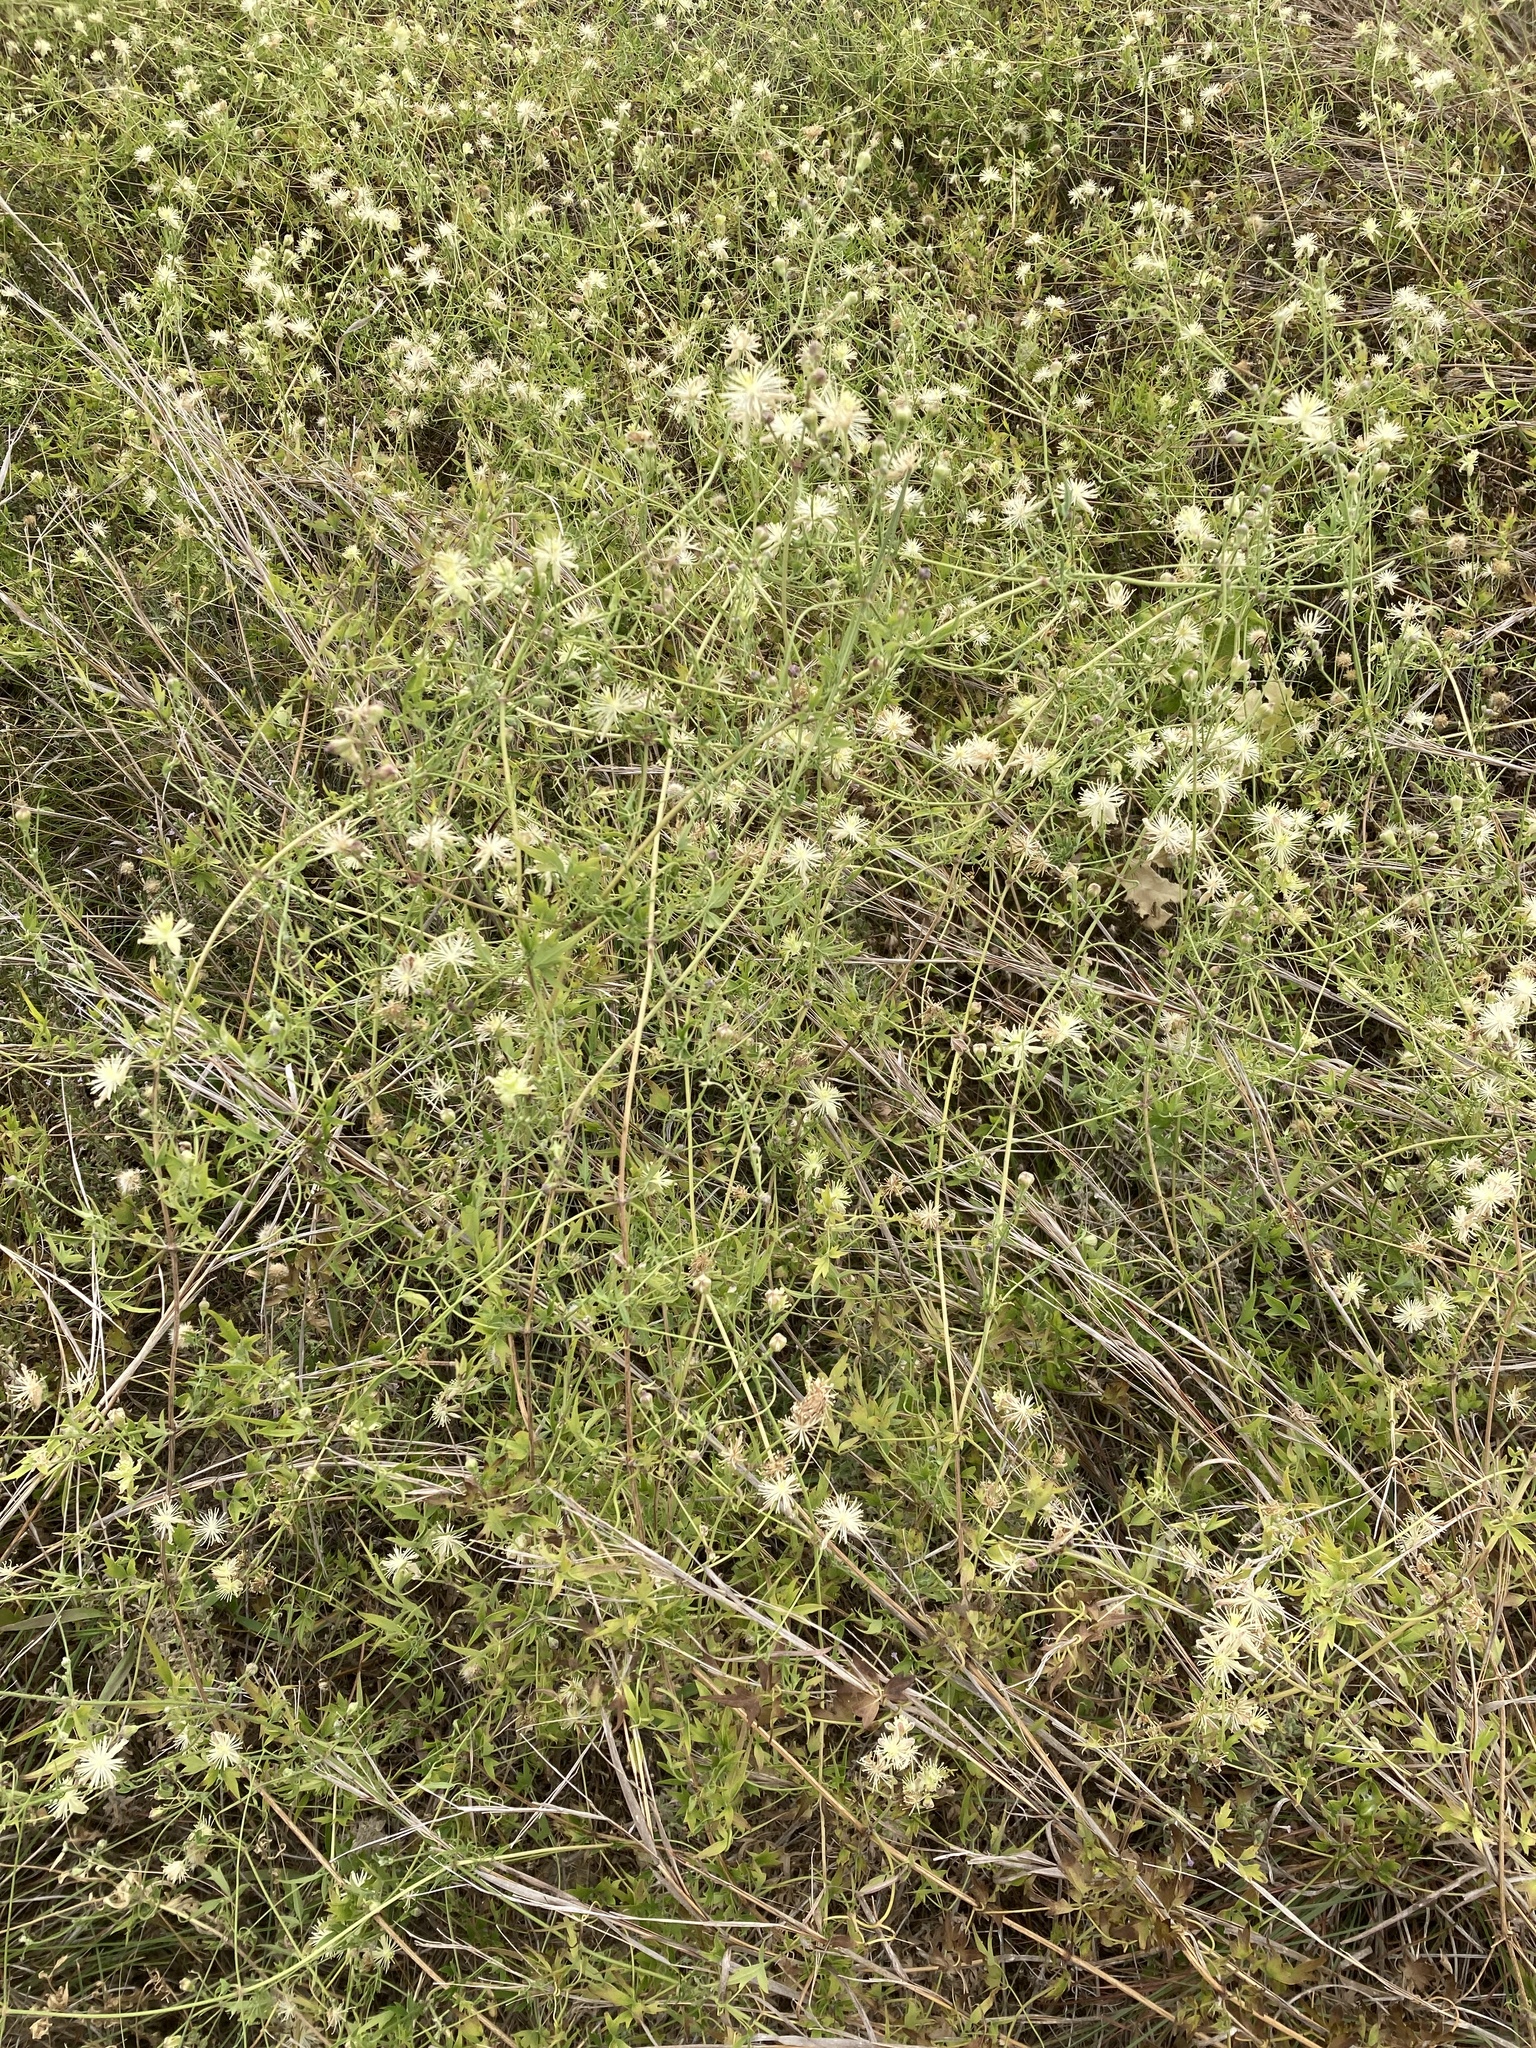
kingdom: Plantae
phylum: Tracheophyta
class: Magnoliopsida
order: Ranunculales
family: Ranunculaceae
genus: Clematis
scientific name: Clematis drummondii
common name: Texas virgin's bower
